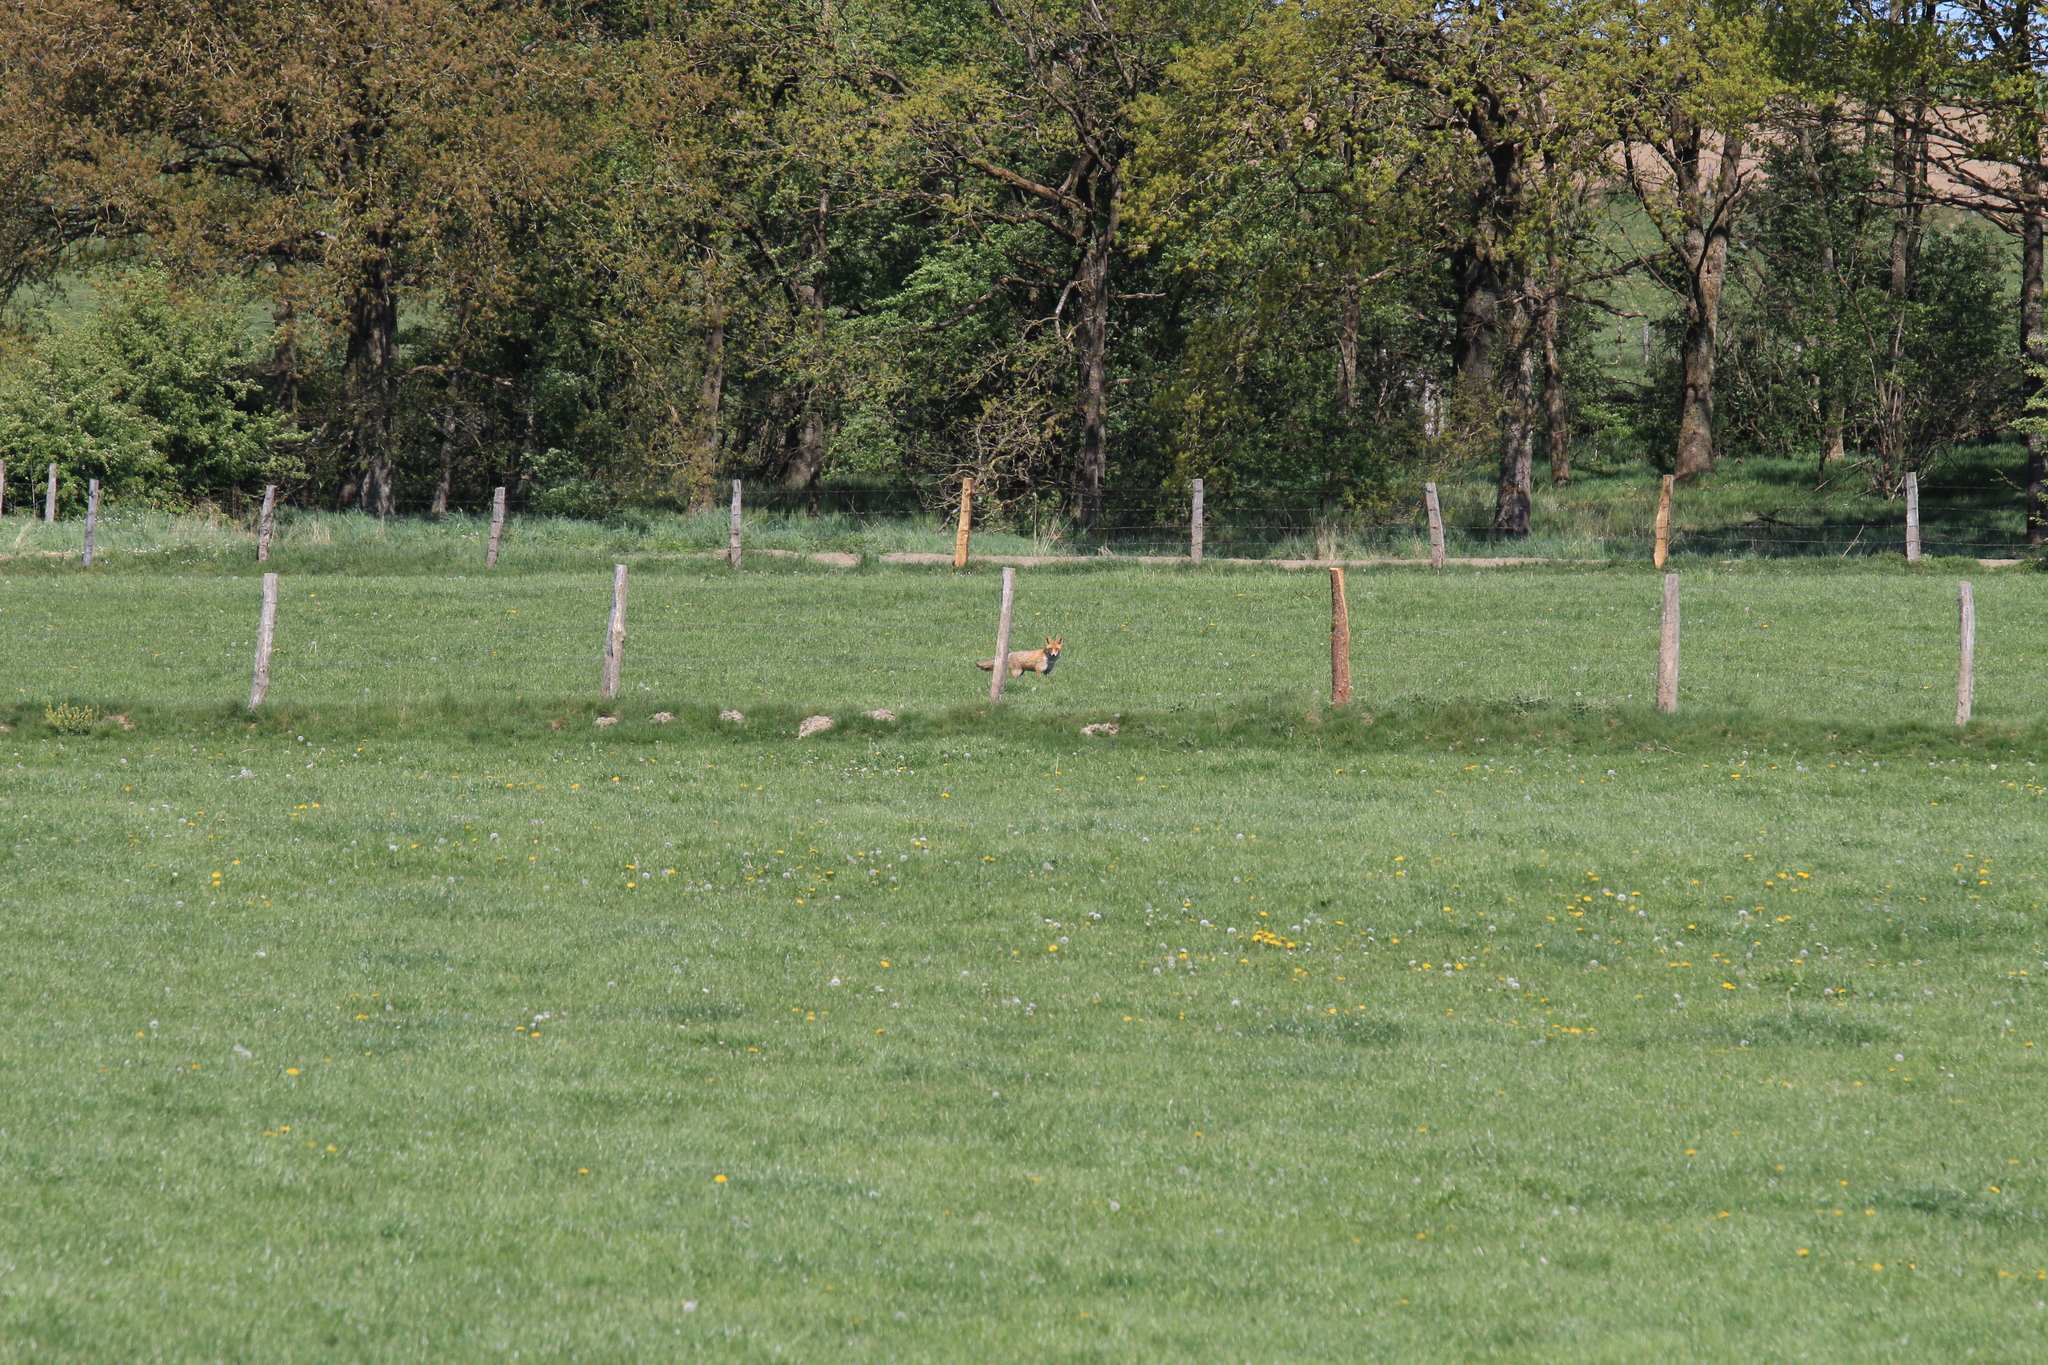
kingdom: Animalia
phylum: Chordata
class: Mammalia
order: Carnivora
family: Canidae
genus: Vulpes
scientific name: Vulpes vulpes
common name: Red fox
